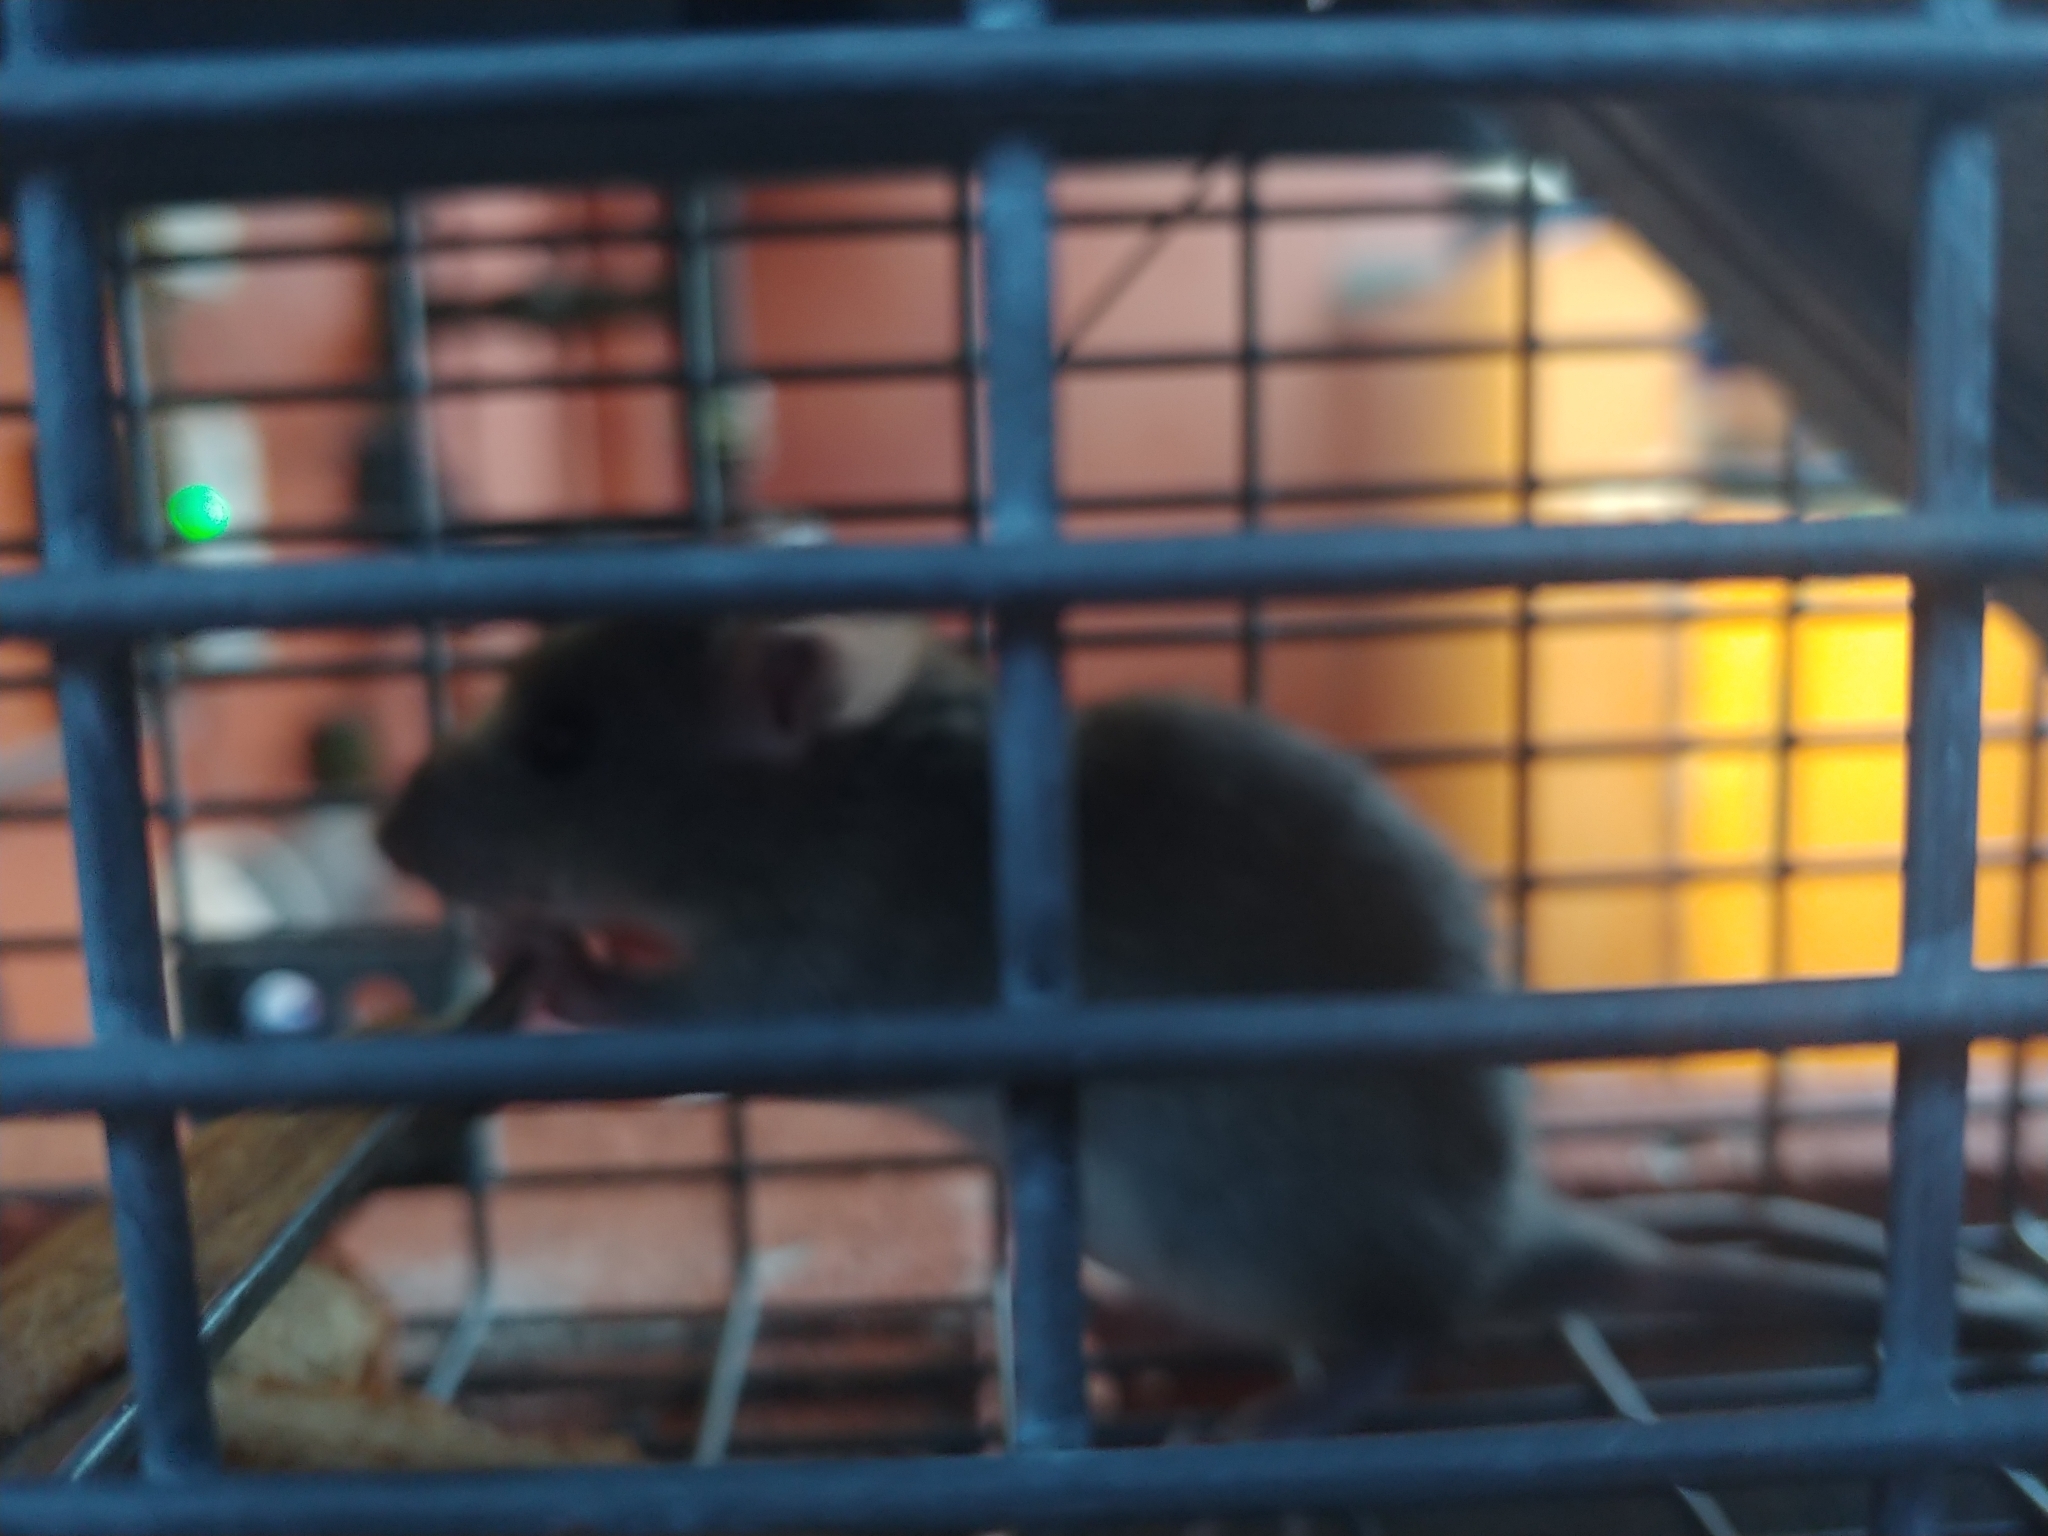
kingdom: Animalia
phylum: Chordata
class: Mammalia
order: Rodentia
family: Muridae
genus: Rattus
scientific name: Rattus rattus
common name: Black rat
